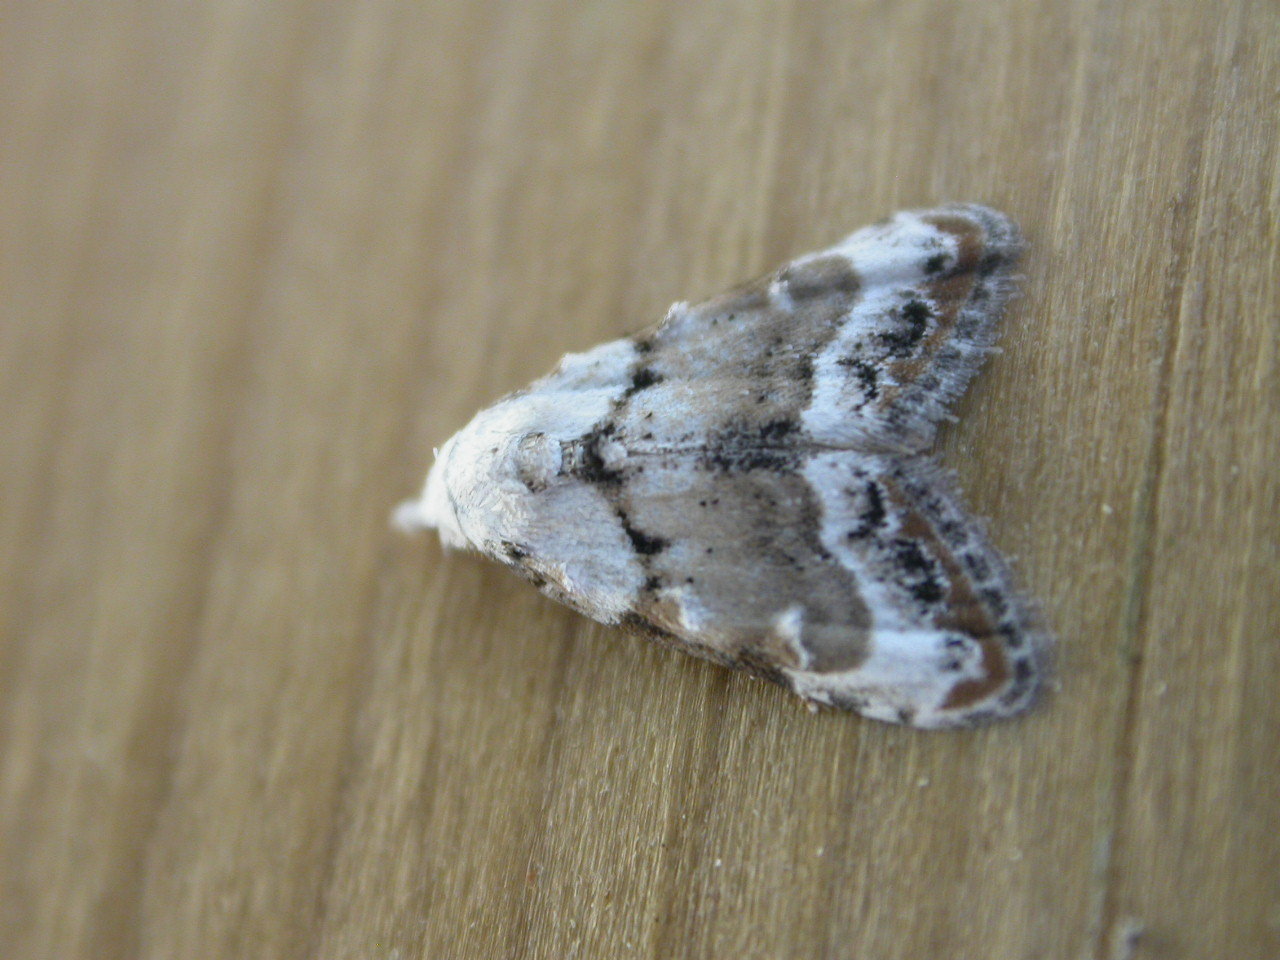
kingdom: Animalia
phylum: Arthropoda
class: Insecta
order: Lepidoptera
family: Nolidae
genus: Nola
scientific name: Nola subchlamydula
